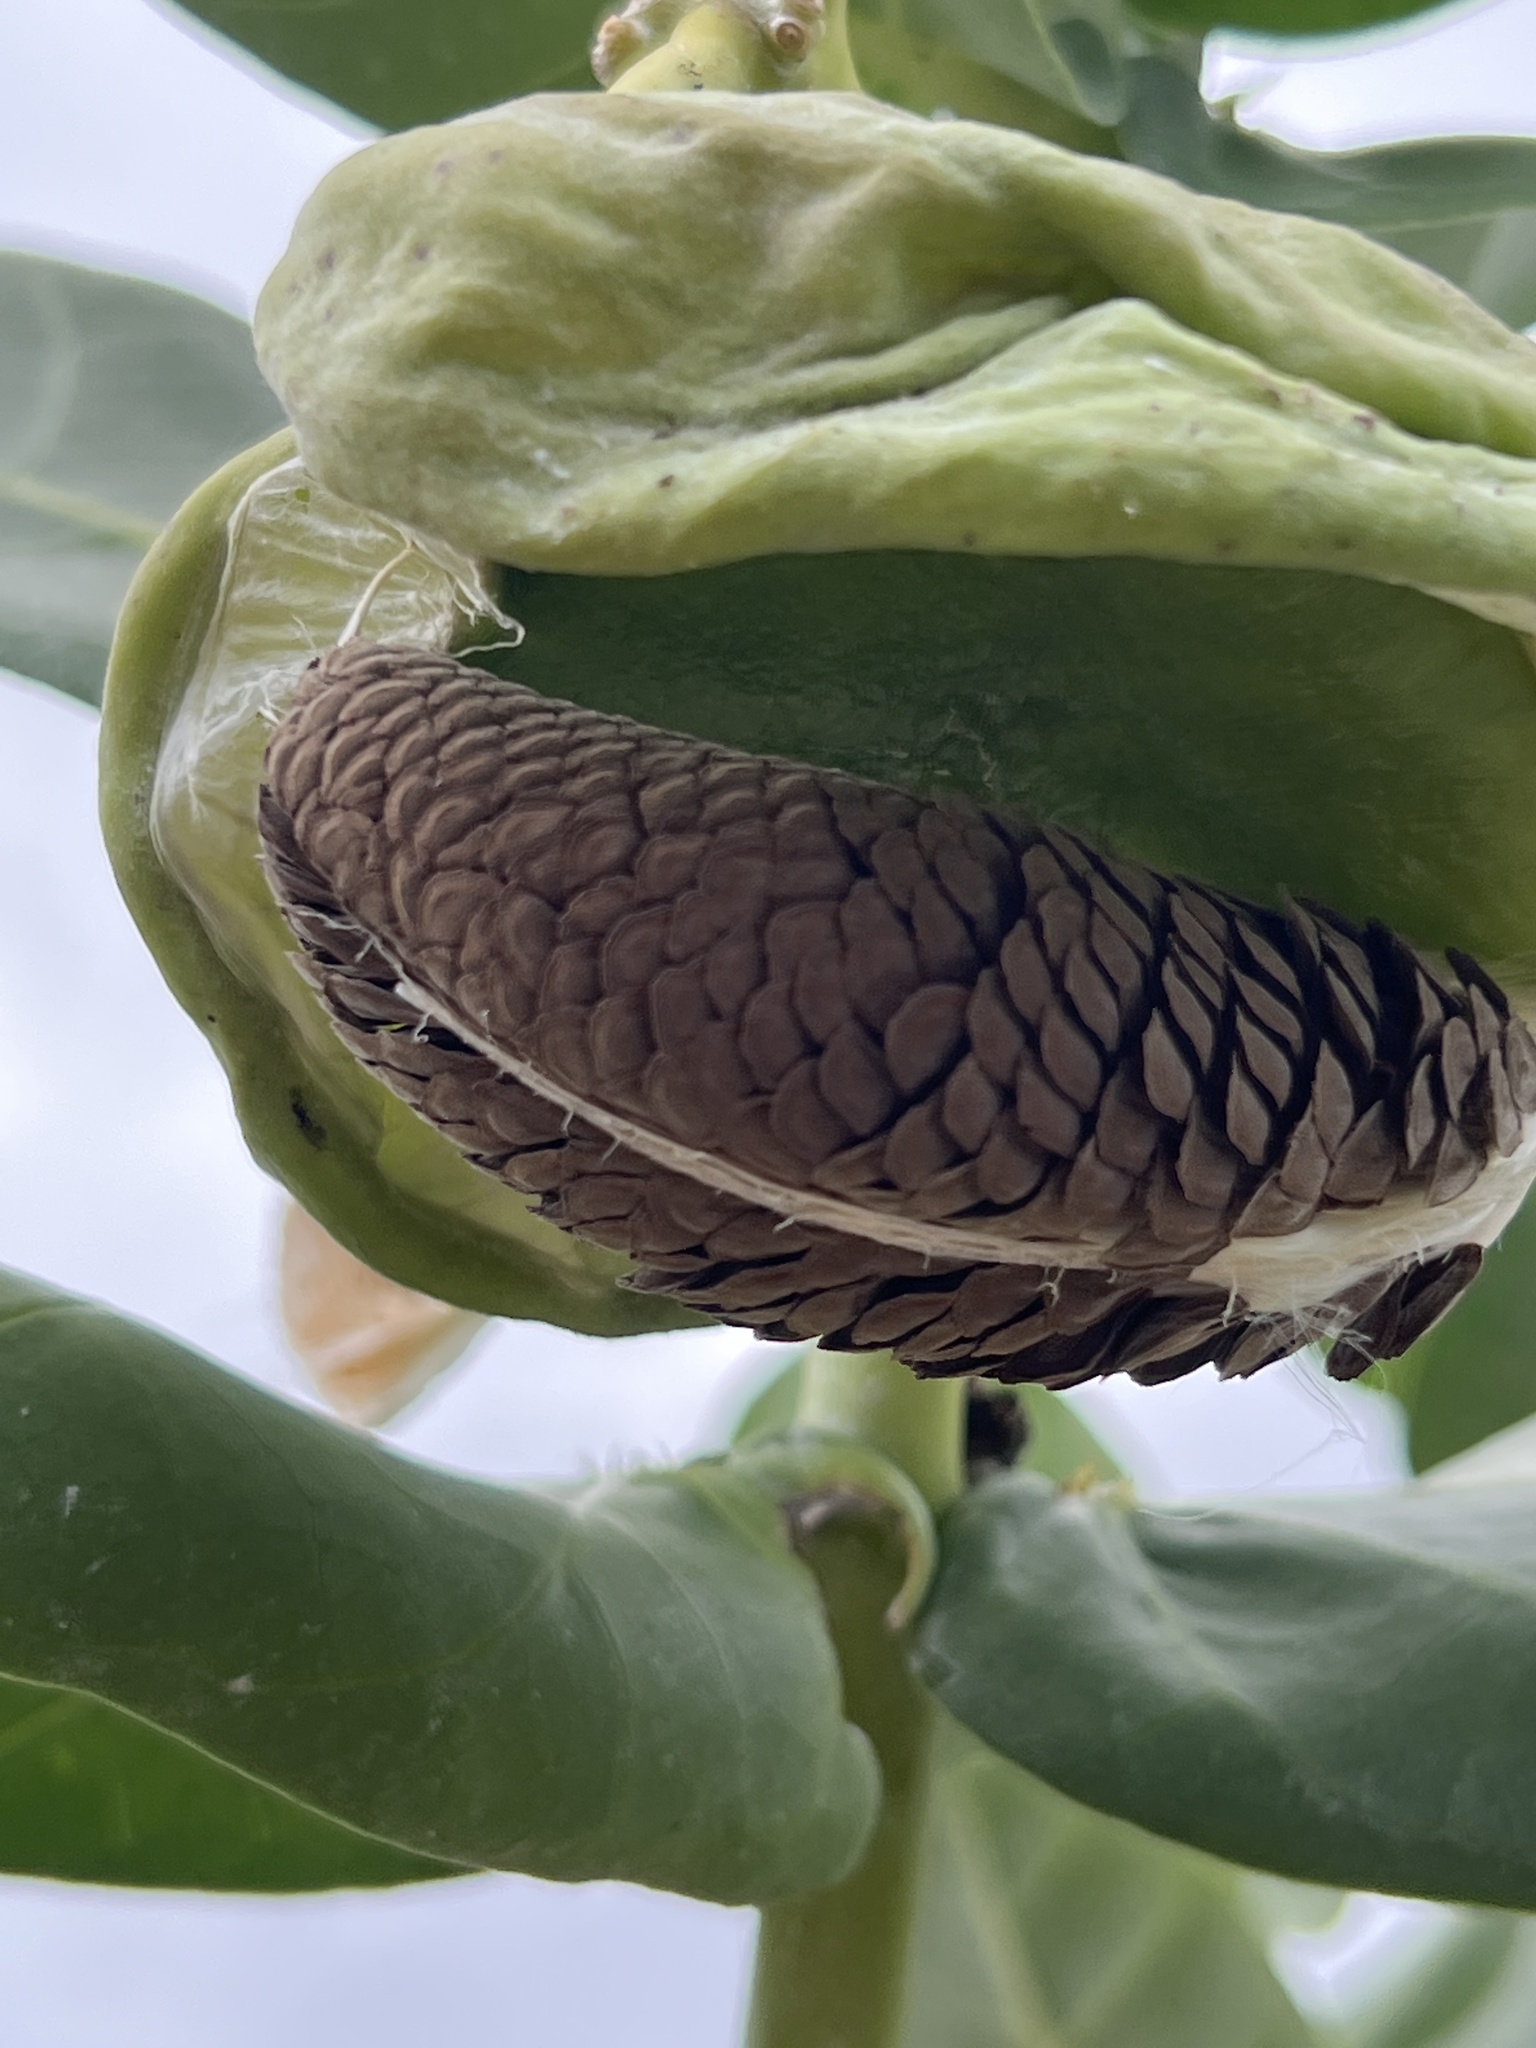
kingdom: Plantae
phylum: Tracheophyta
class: Magnoliopsida
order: Gentianales
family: Apocynaceae
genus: Calotropis
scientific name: Calotropis procera
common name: Roostertree
